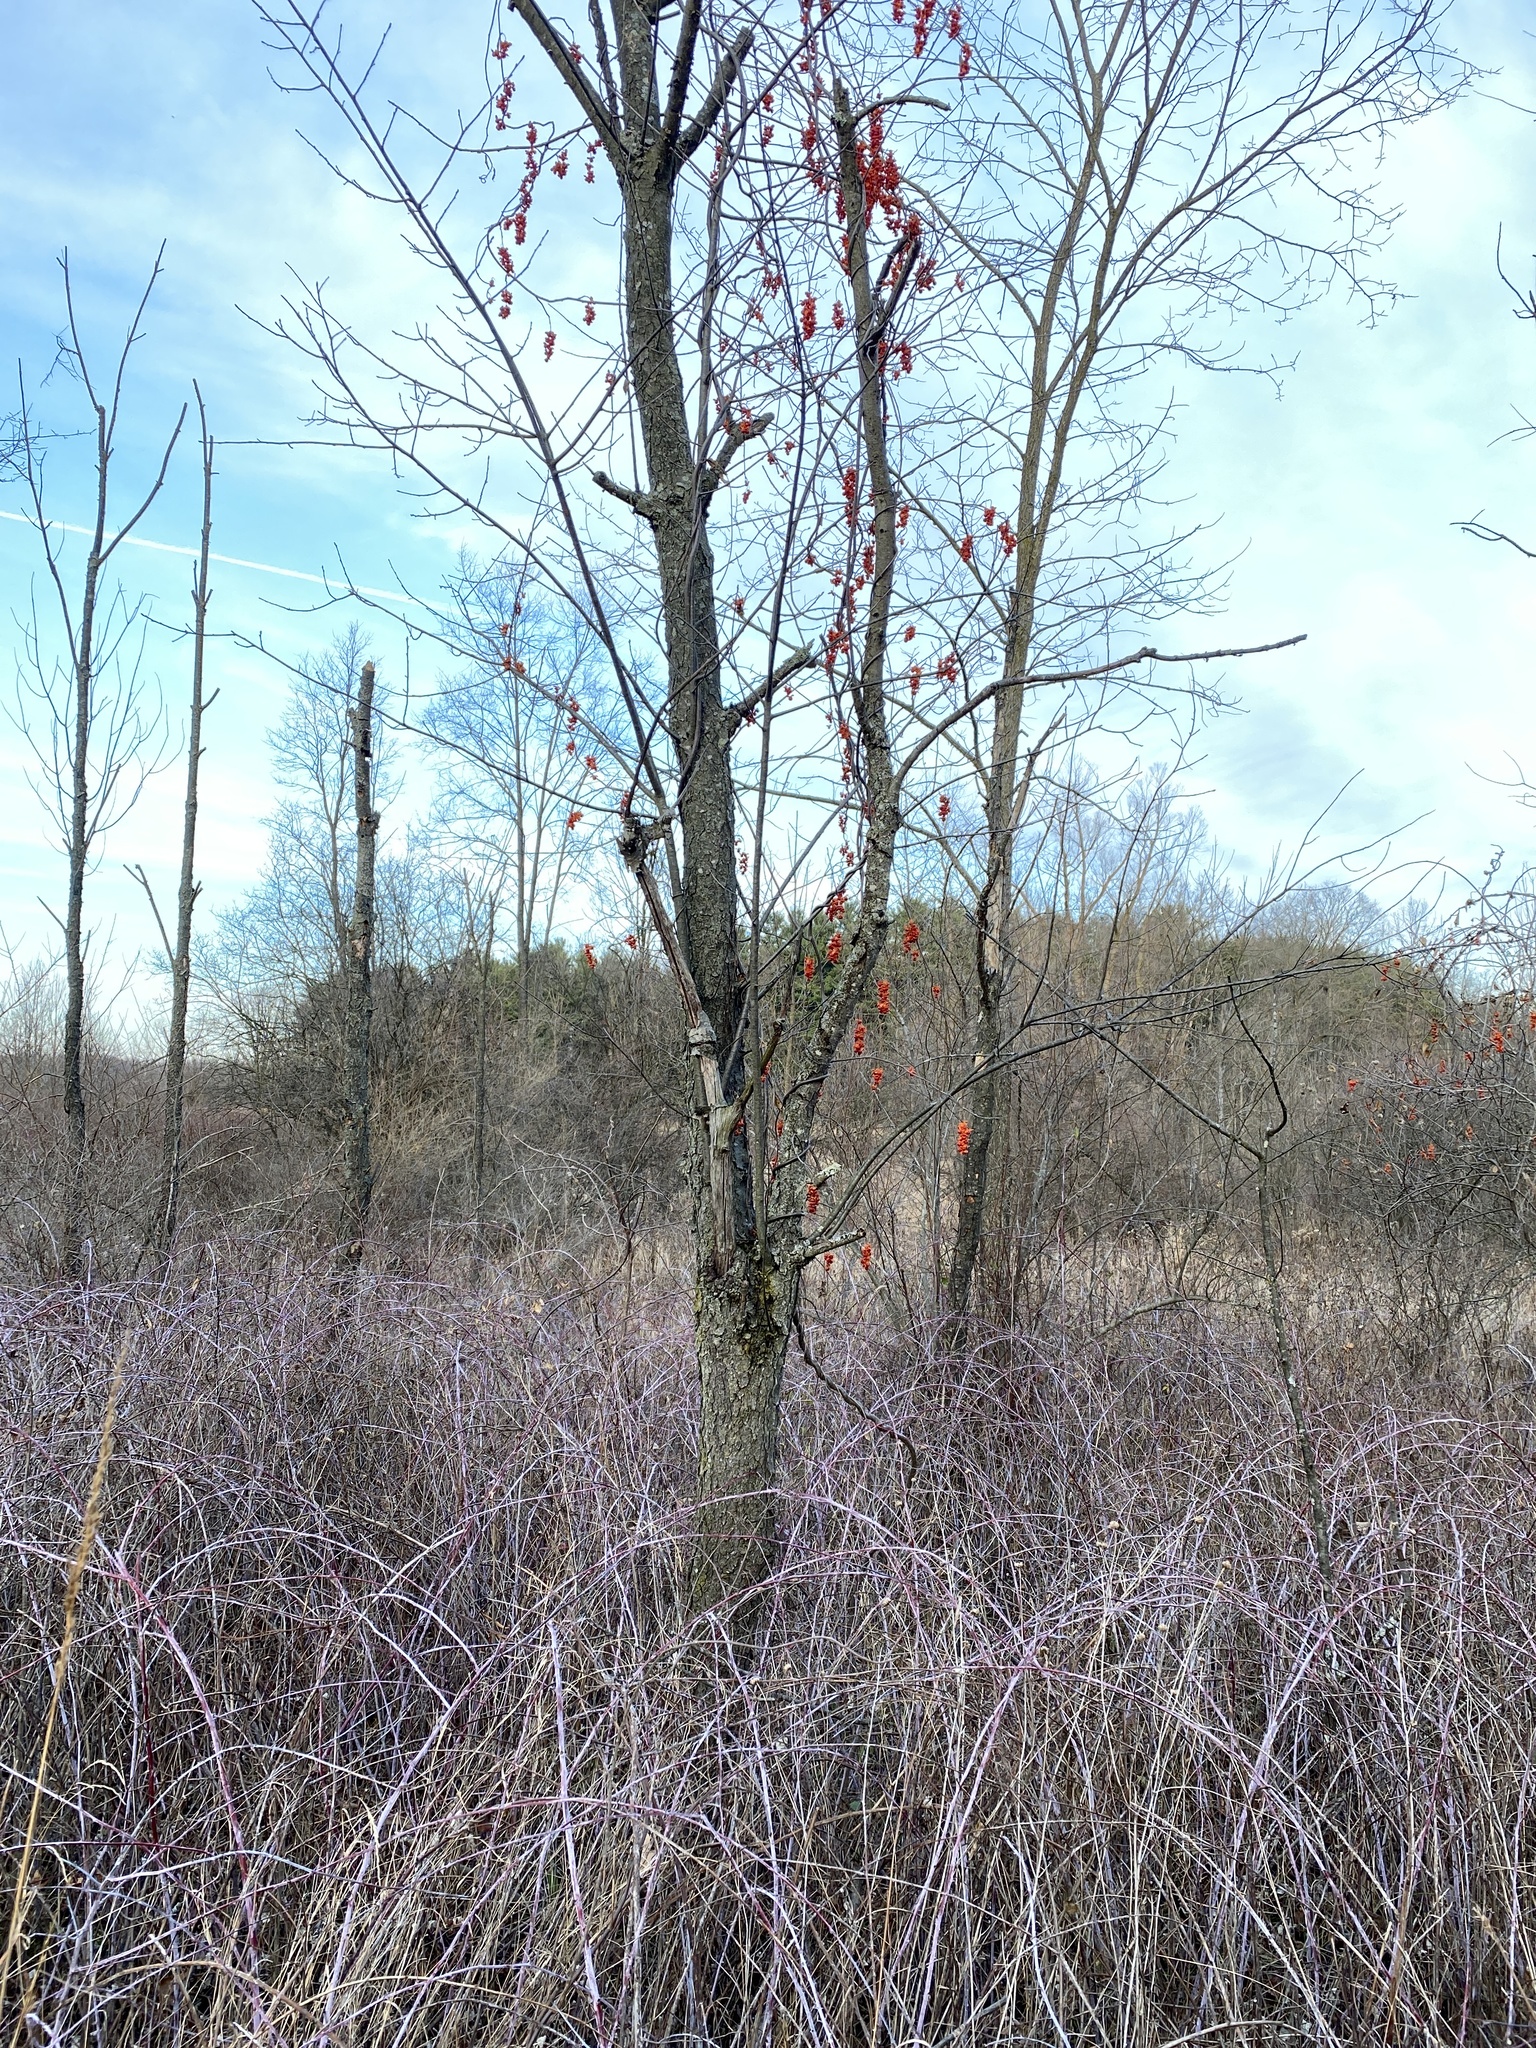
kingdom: Plantae
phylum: Tracheophyta
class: Magnoliopsida
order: Celastrales
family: Celastraceae
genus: Celastrus
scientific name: Celastrus scandens
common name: American bittersweet
